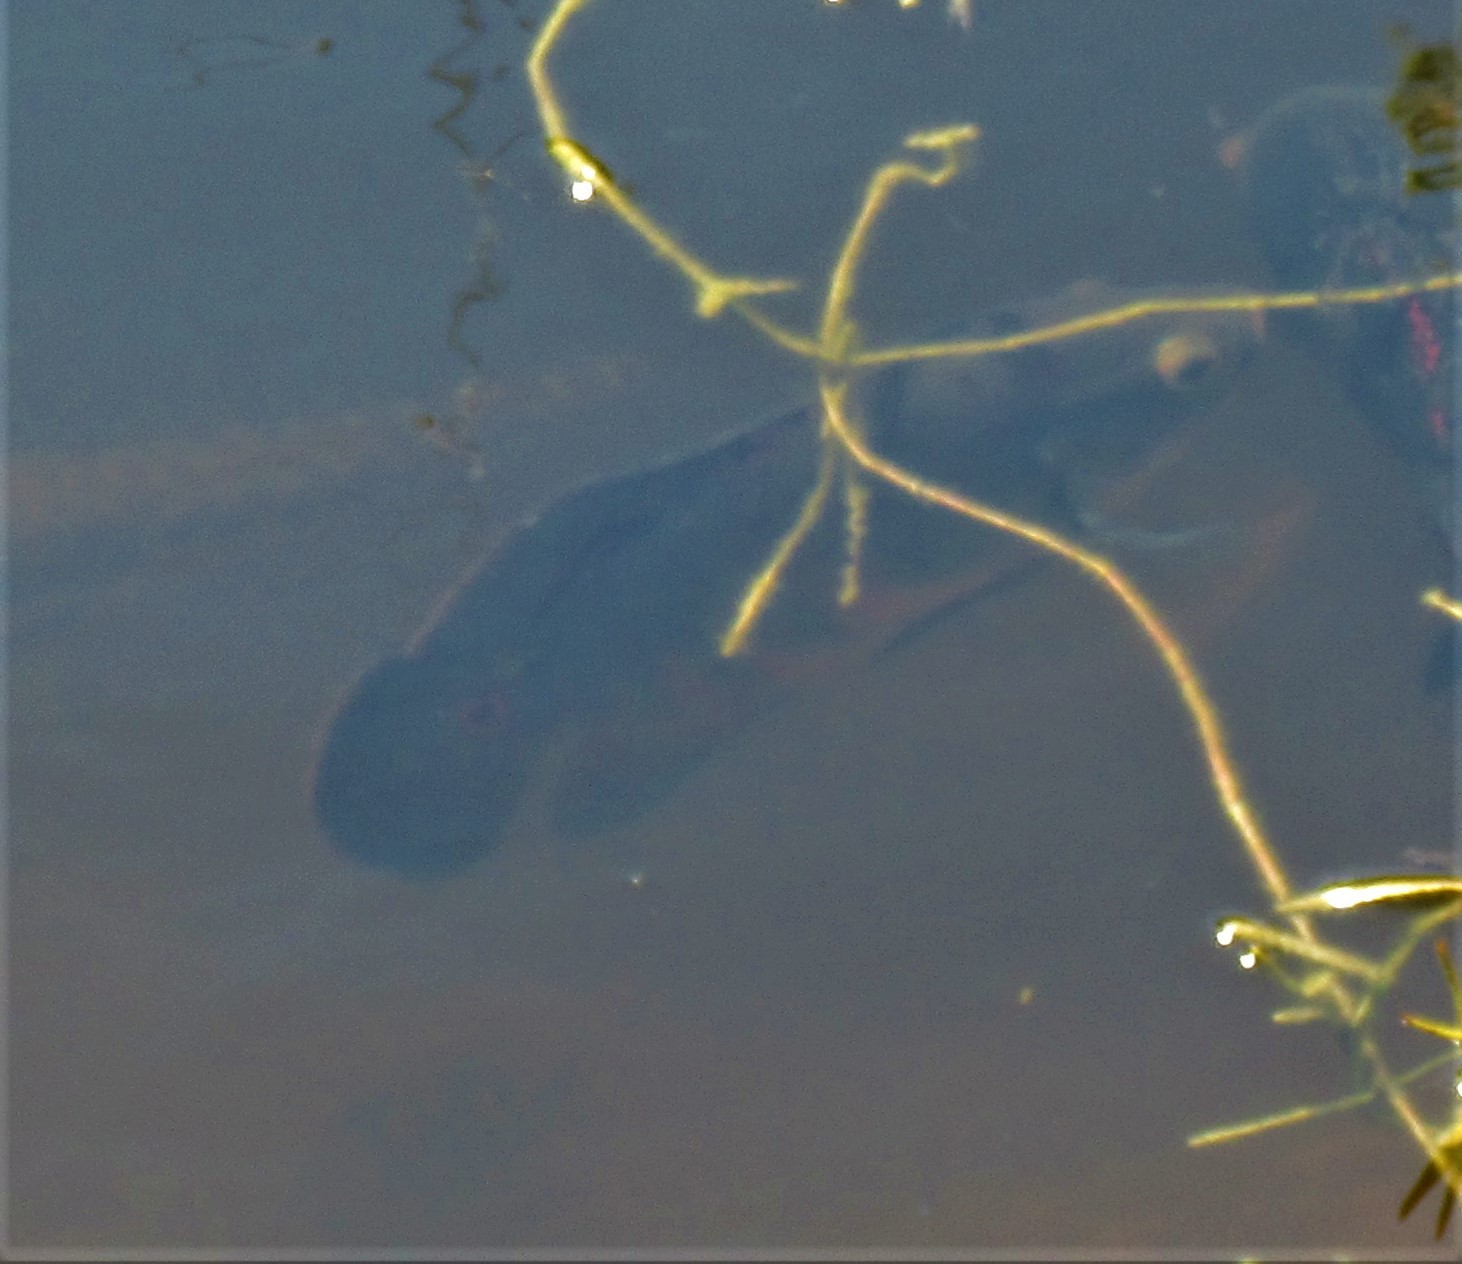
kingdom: Animalia
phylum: Chordata
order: Perciformes
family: Cichlidae
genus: Astronotus
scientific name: Astronotus ocellatus
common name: Oscar
